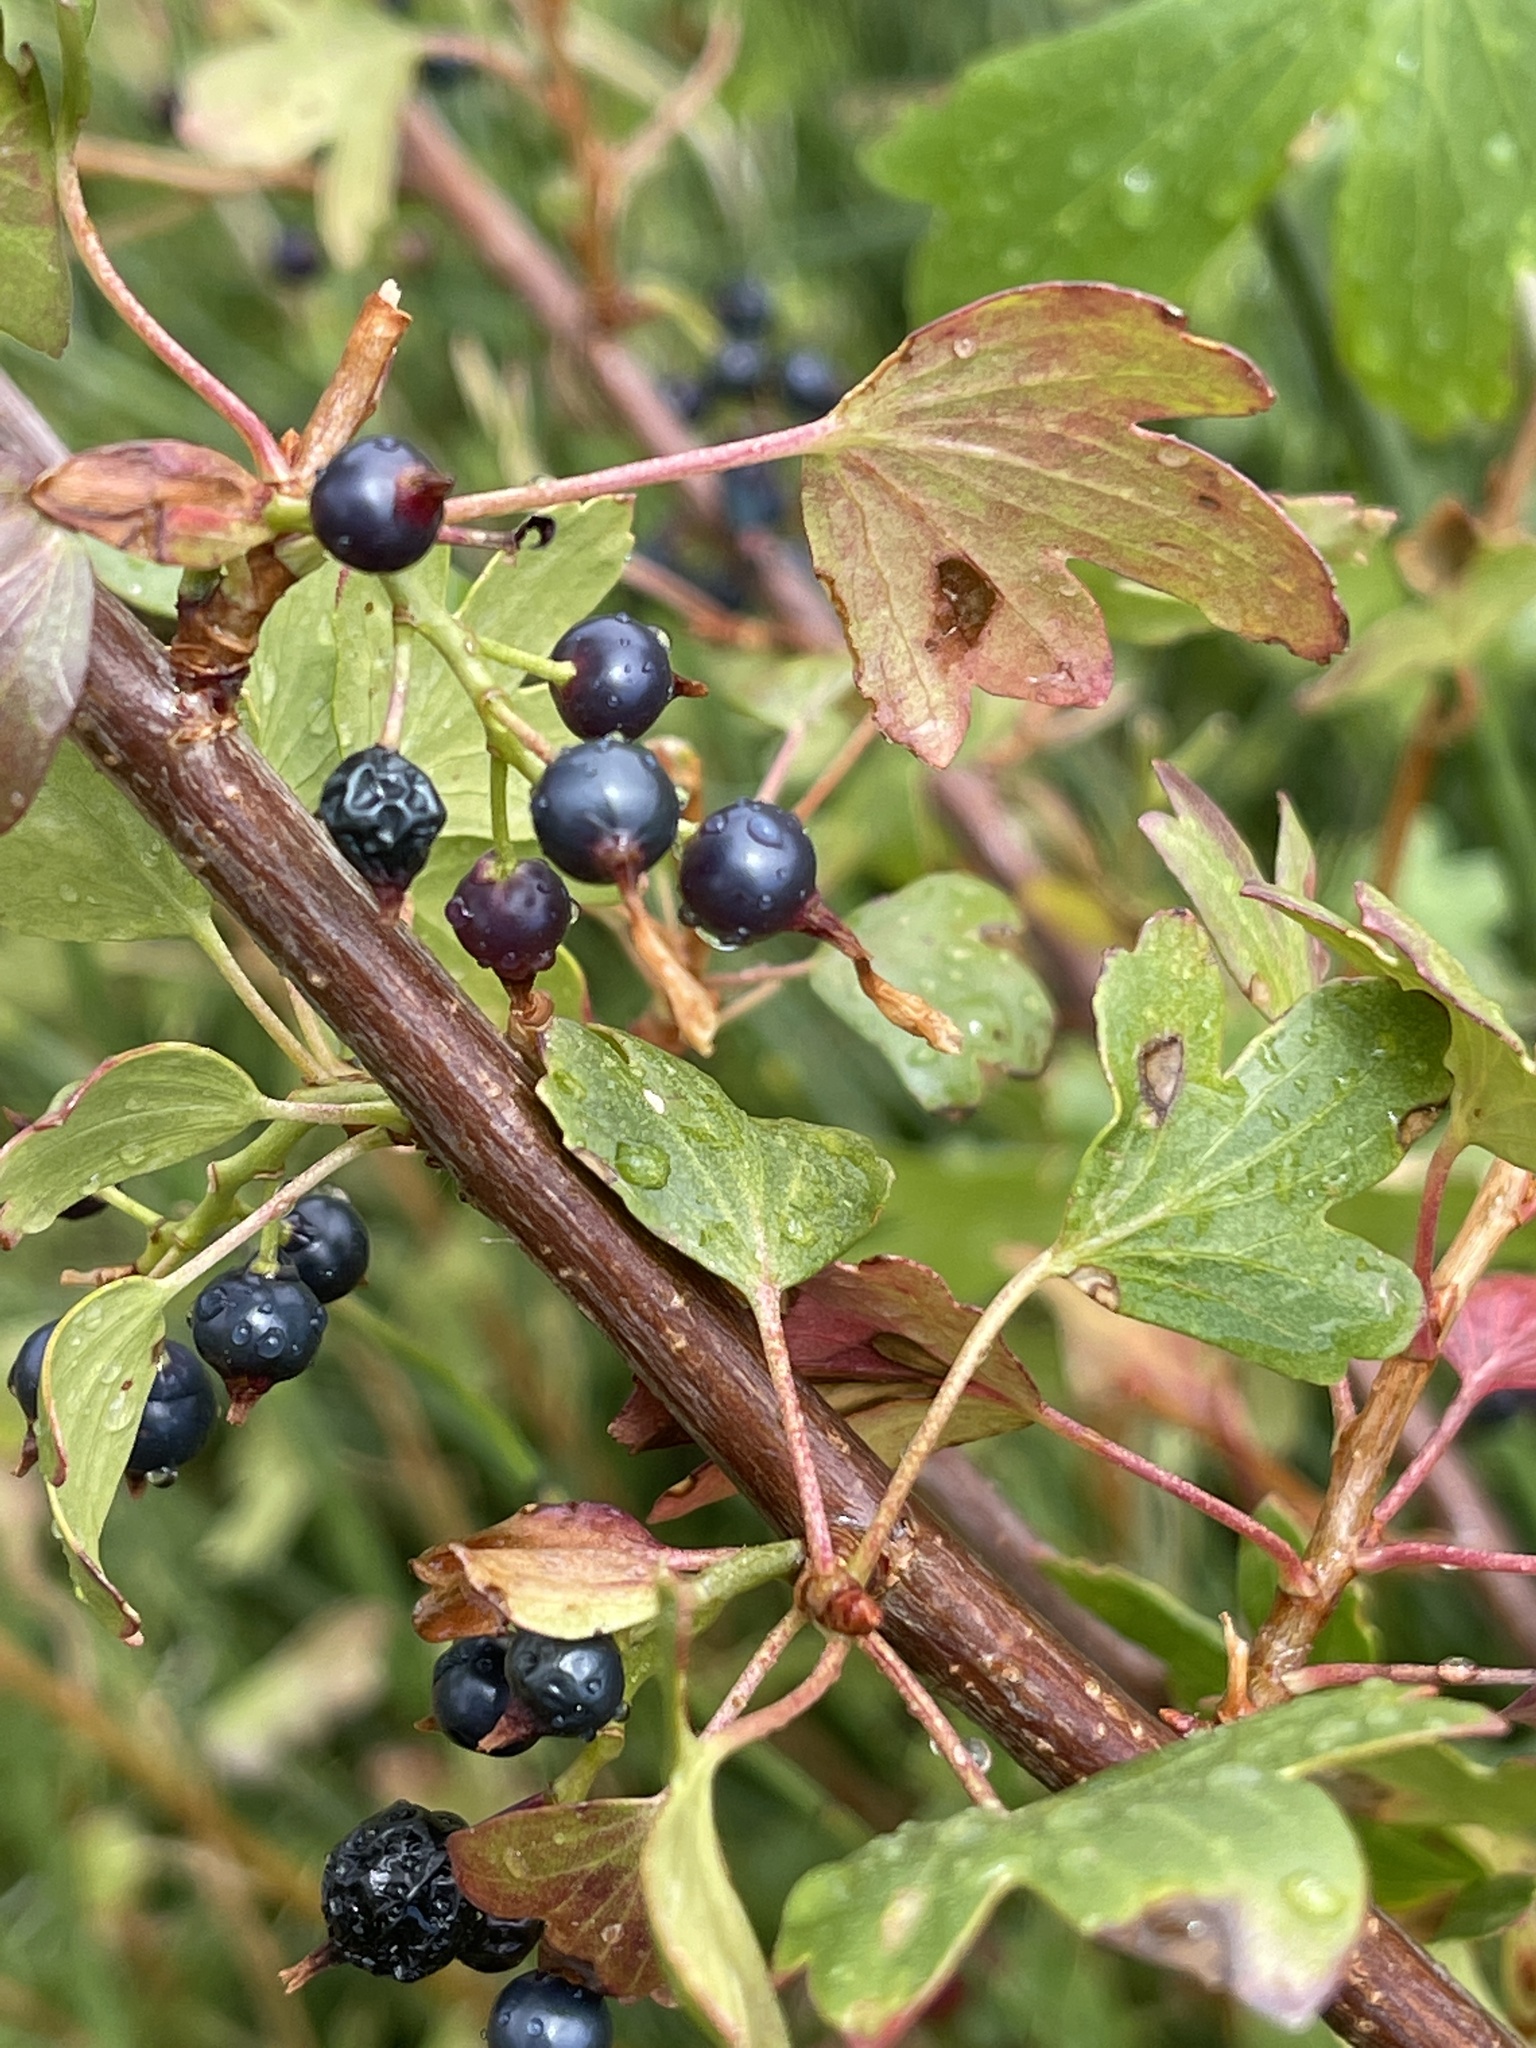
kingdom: Plantae
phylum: Tracheophyta
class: Magnoliopsida
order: Saxifragales
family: Grossulariaceae
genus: Ribes
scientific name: Ribes aureum
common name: Golden currant
